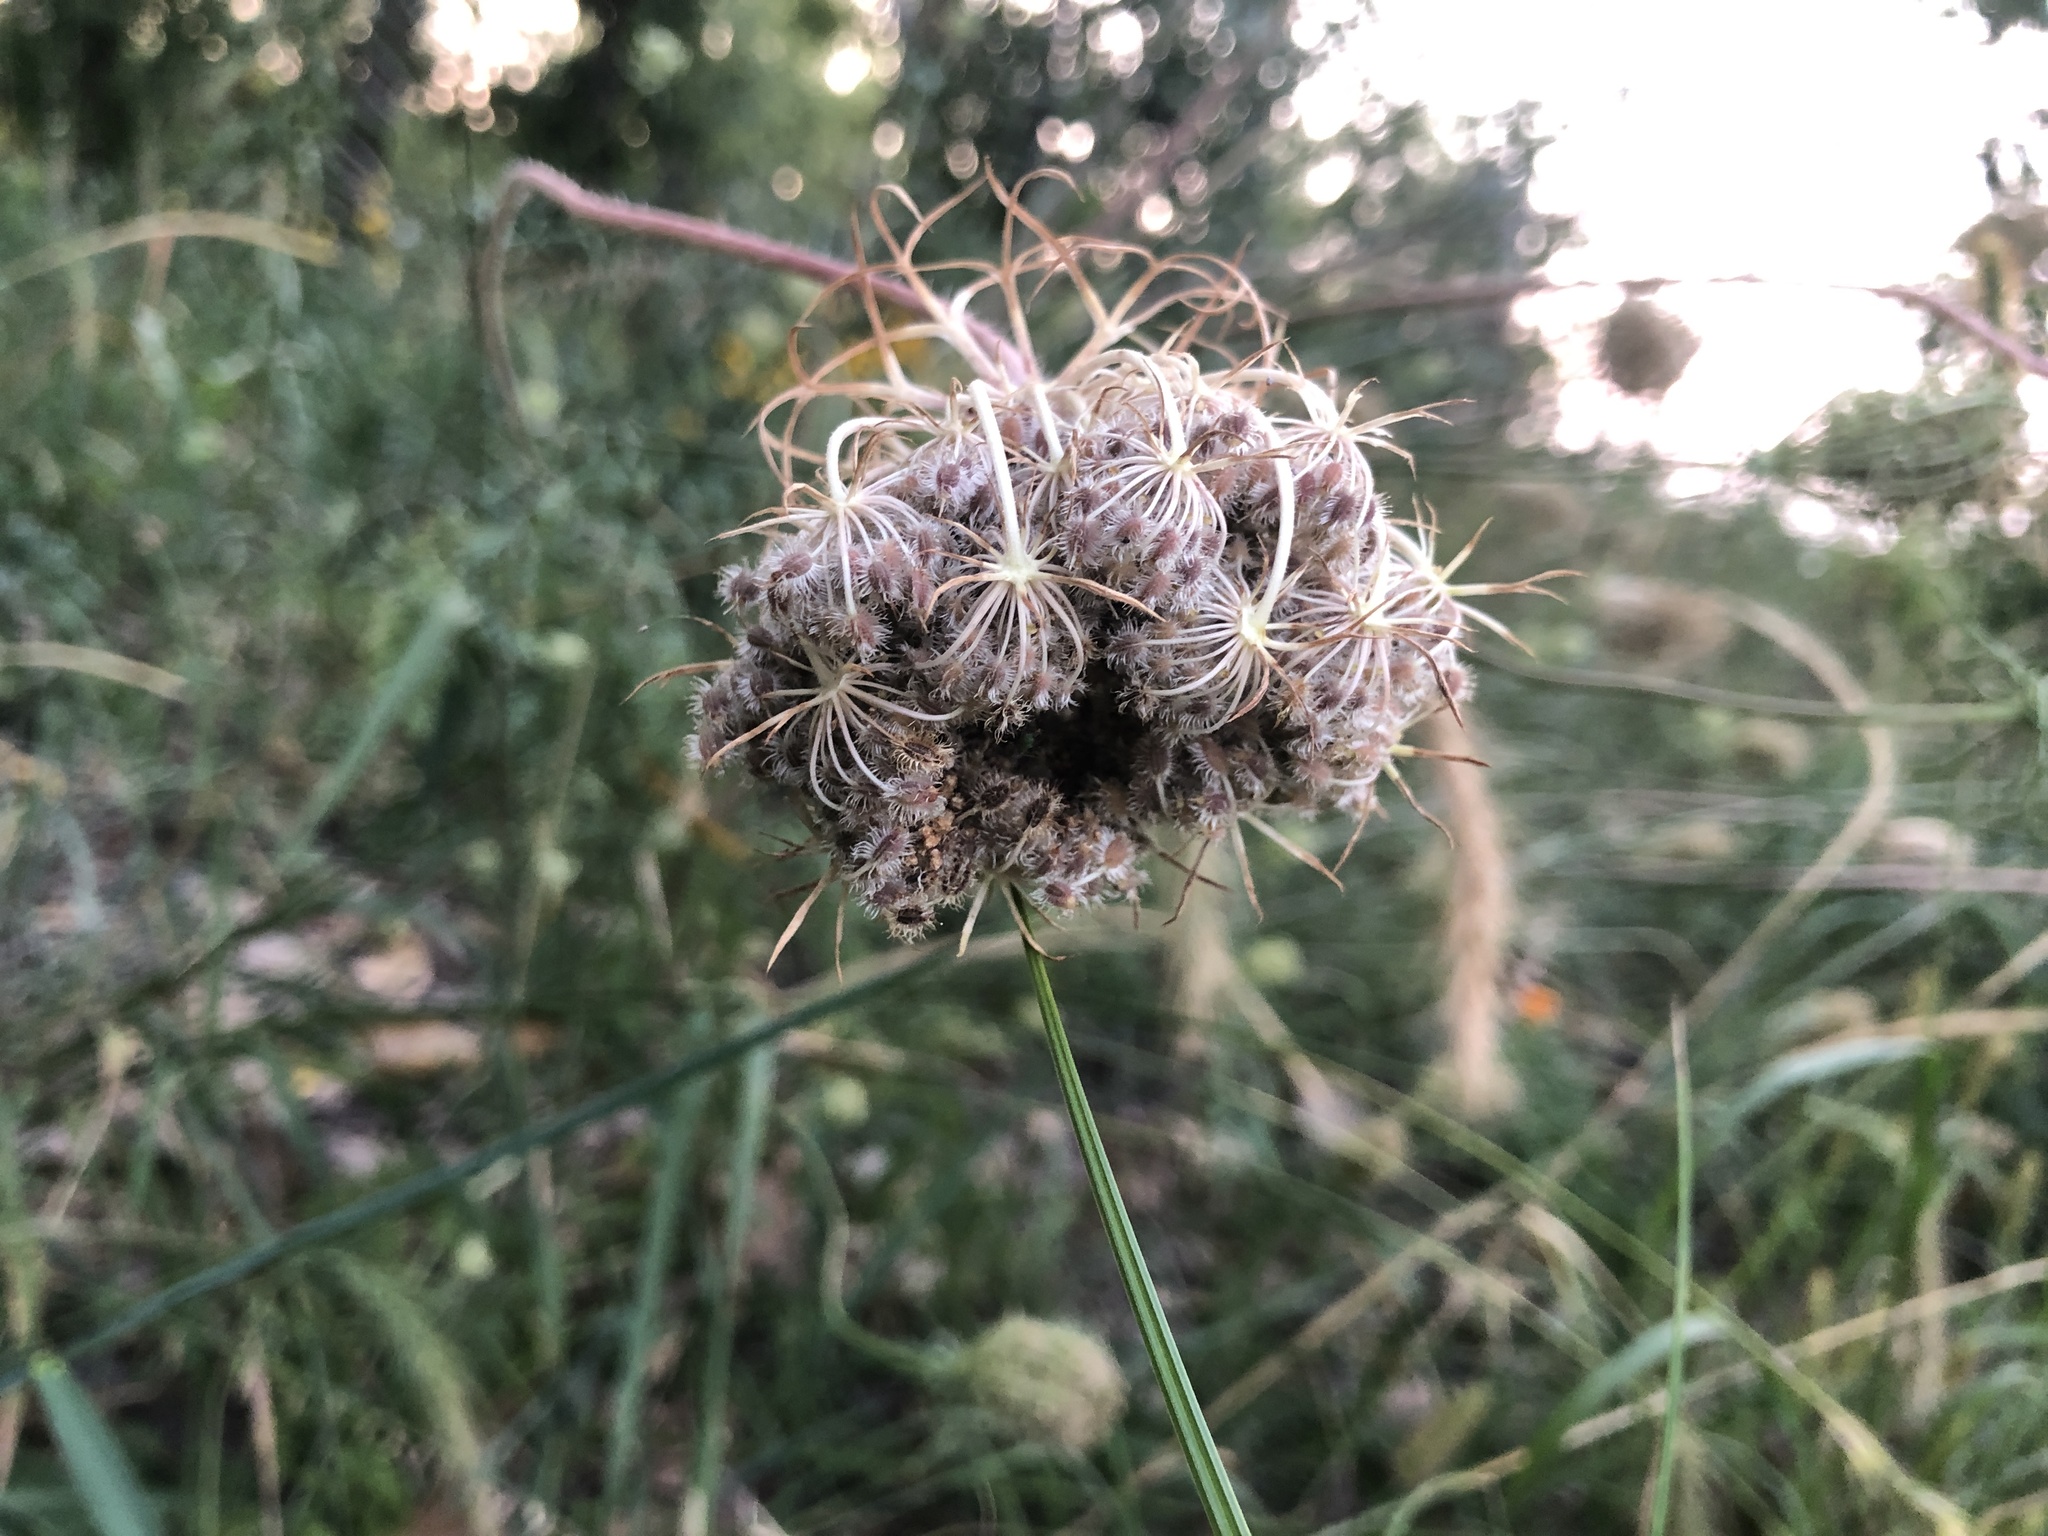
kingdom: Plantae
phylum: Tracheophyta
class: Magnoliopsida
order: Apiales
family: Apiaceae
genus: Daucus
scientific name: Daucus carota
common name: Wild carrot
